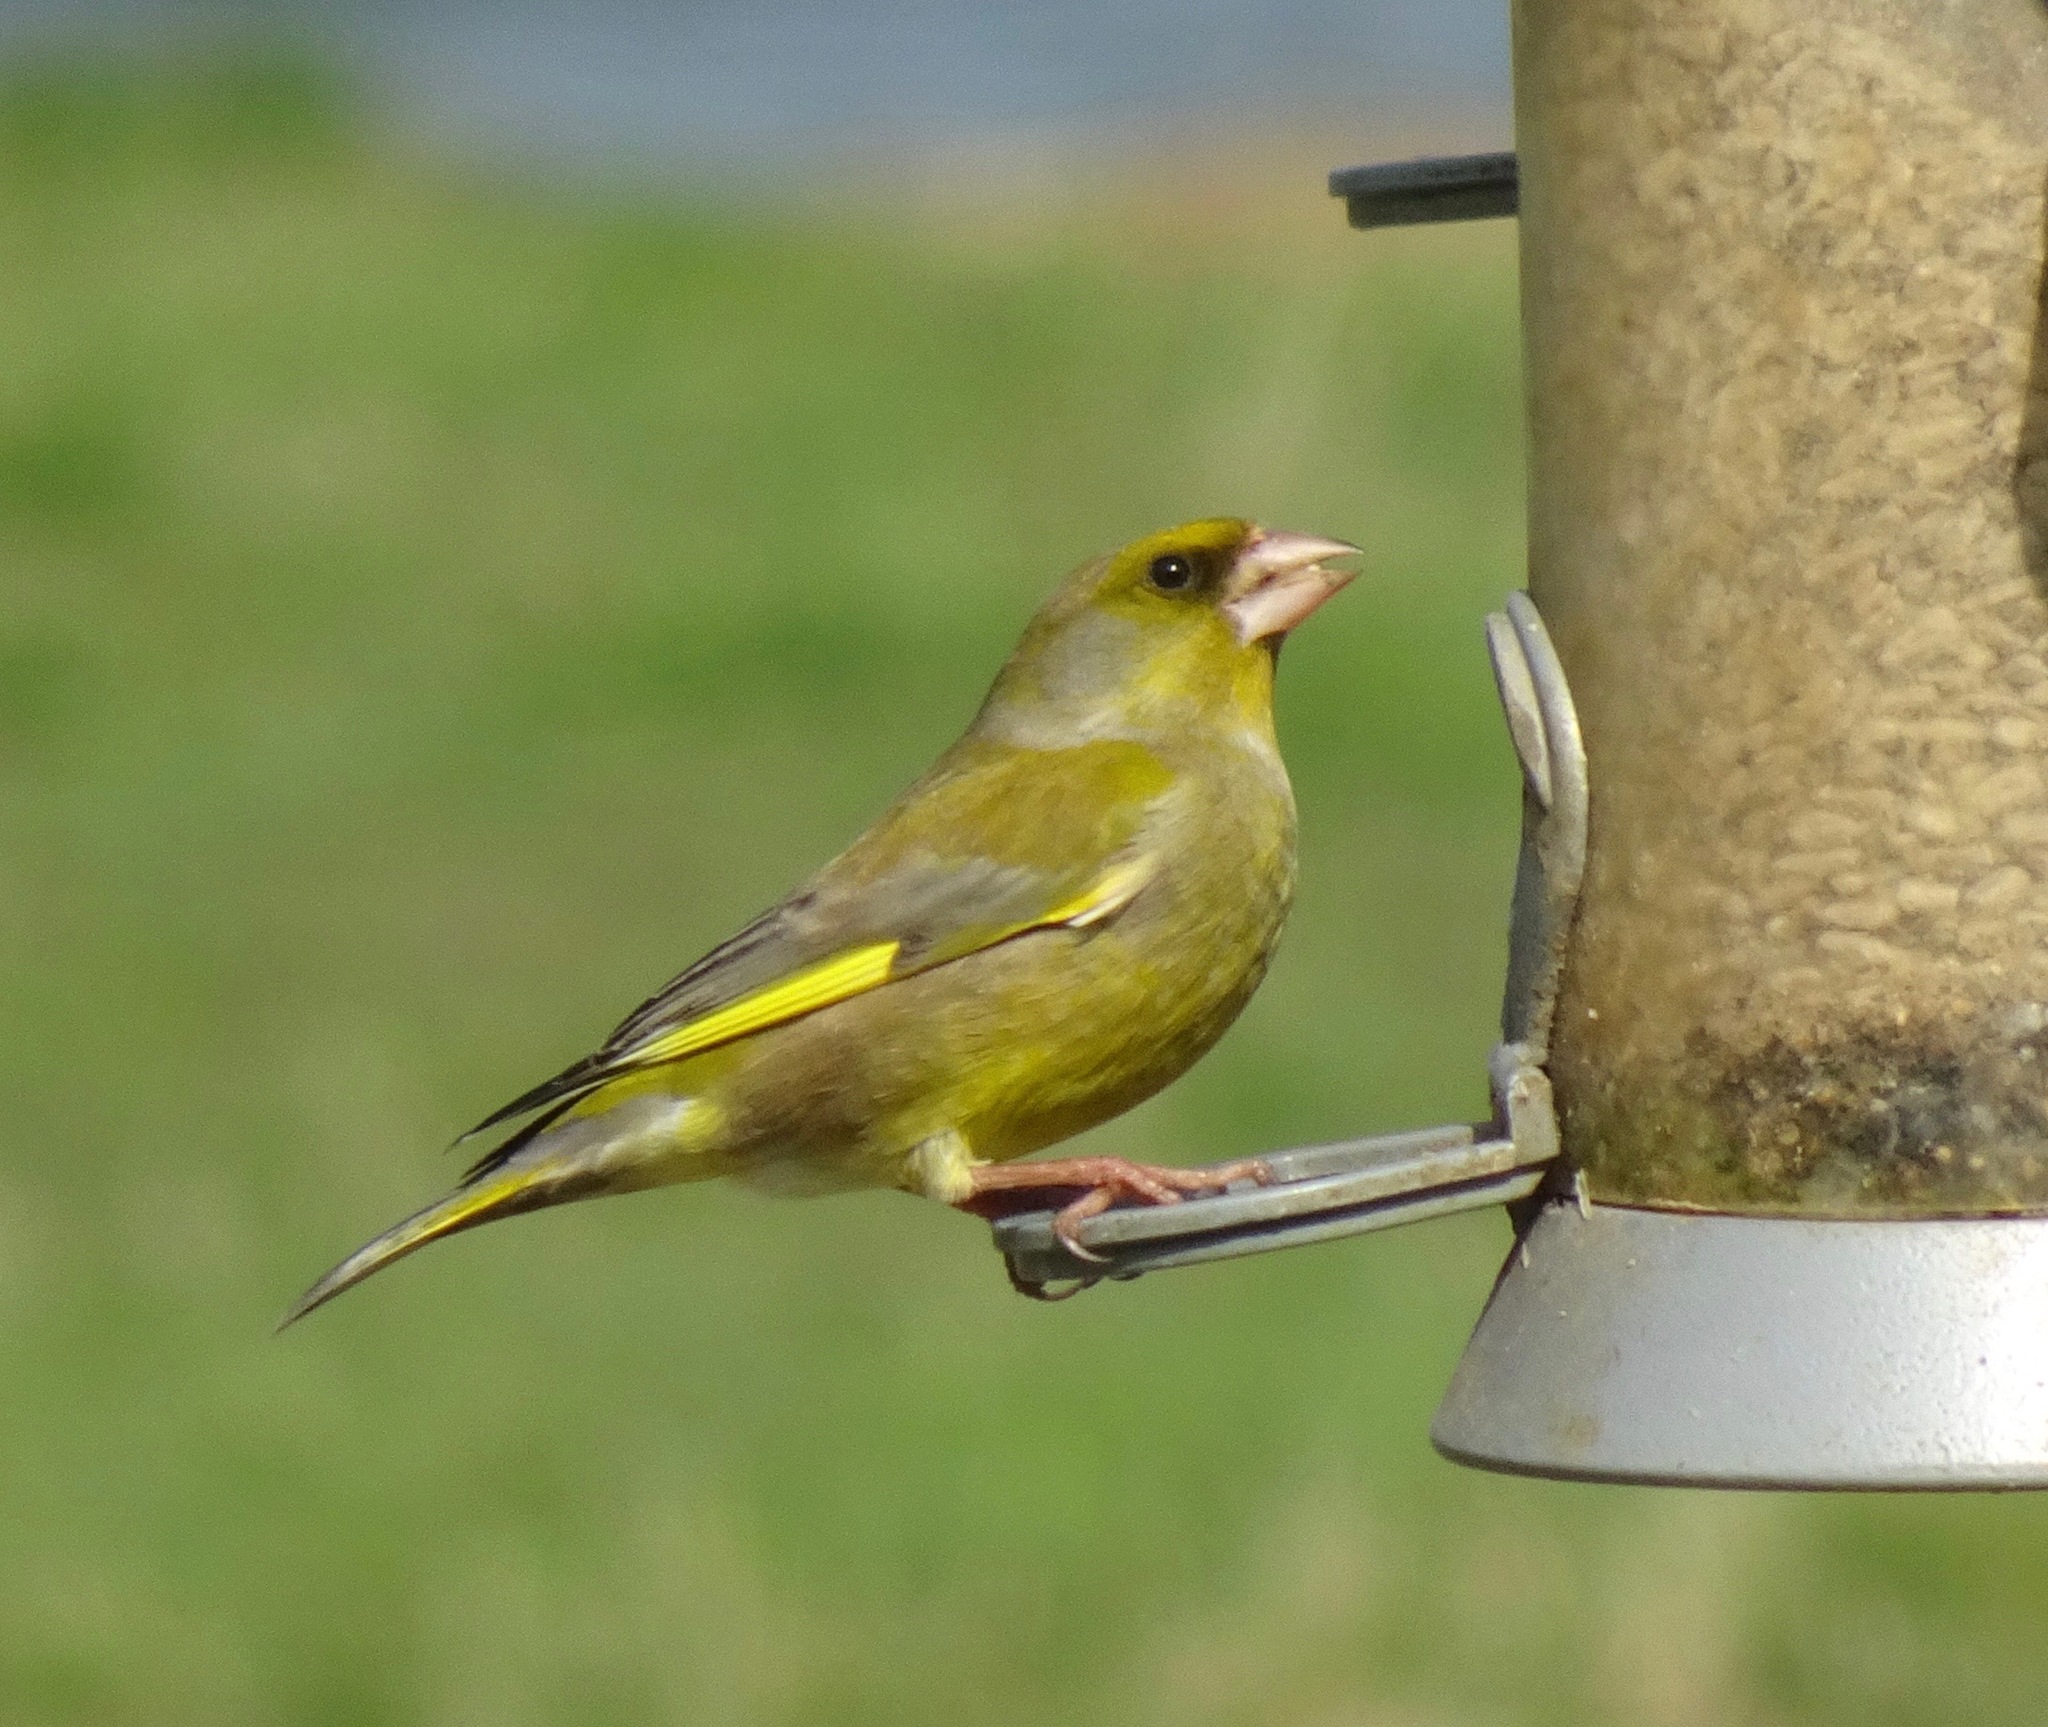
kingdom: Plantae
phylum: Tracheophyta
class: Liliopsida
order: Poales
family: Poaceae
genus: Chloris
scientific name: Chloris chloris
